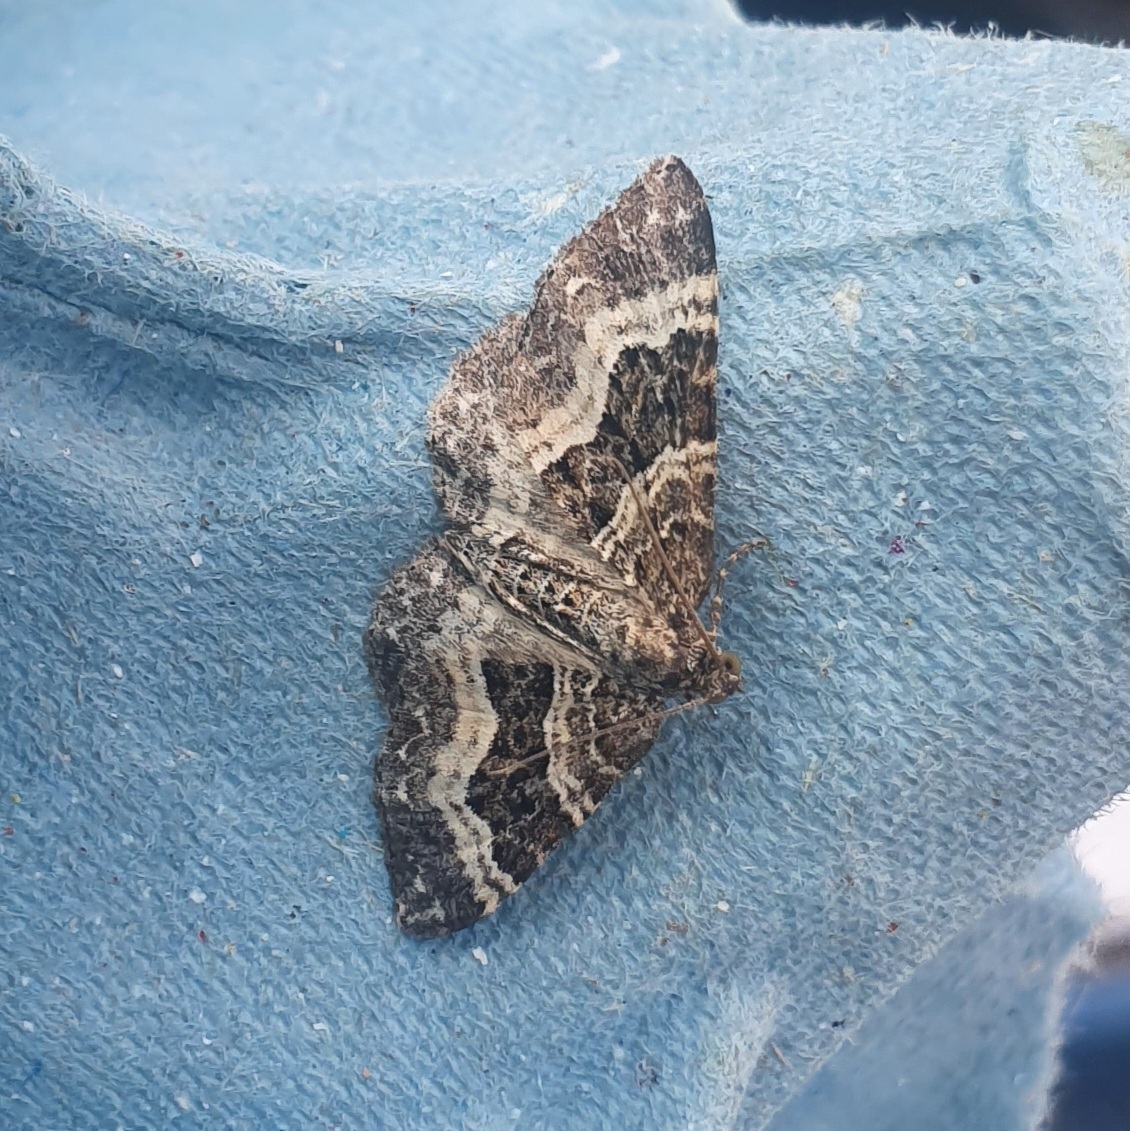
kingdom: Animalia
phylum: Arthropoda
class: Insecta
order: Lepidoptera
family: Geometridae
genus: Epirrhoe
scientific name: Epirrhoe alternata
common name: Common carpet
